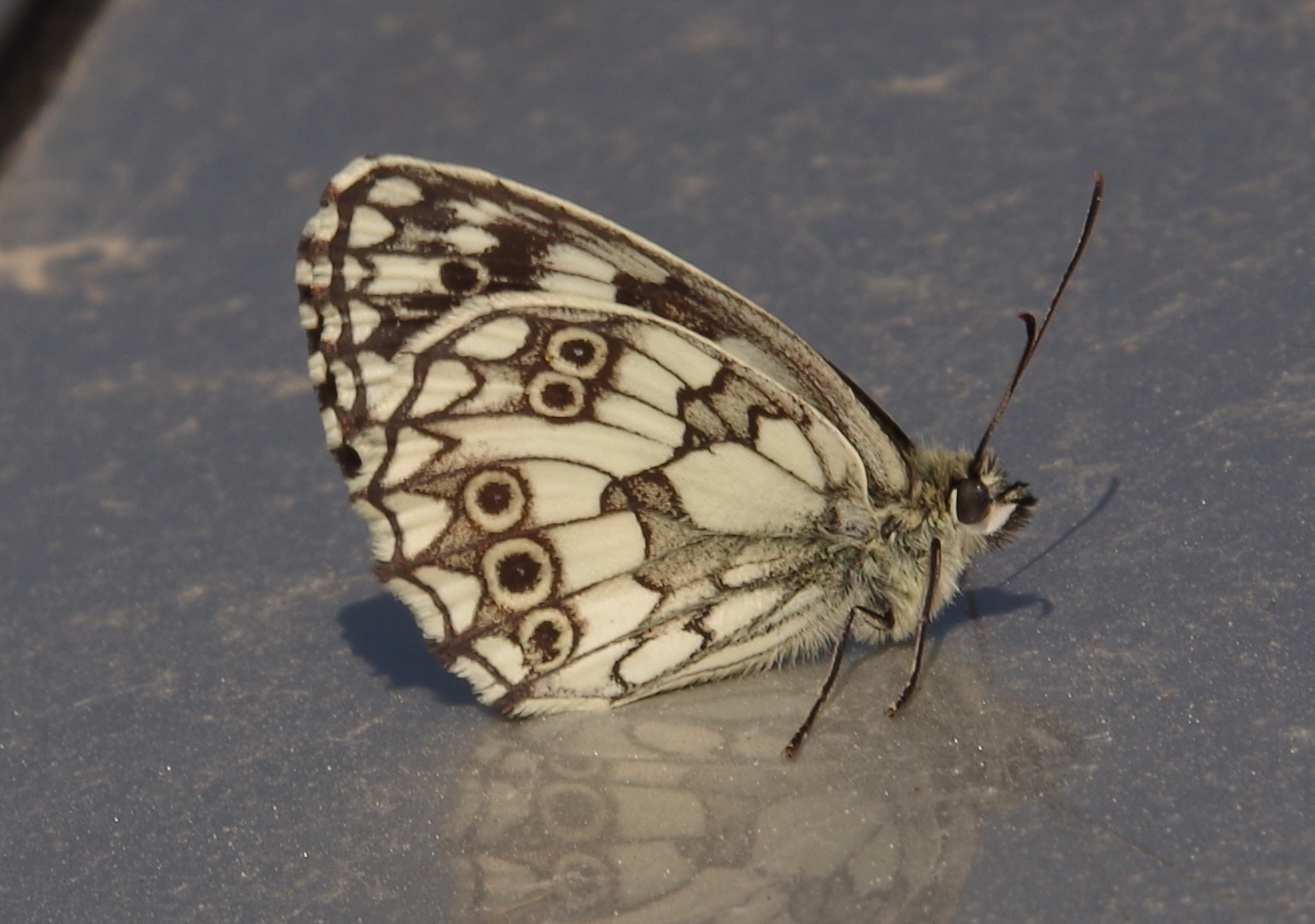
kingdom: Animalia
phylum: Arthropoda
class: Insecta
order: Lepidoptera
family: Nymphalidae
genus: Melanargia
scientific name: Melanargia galathea
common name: Marbled white
